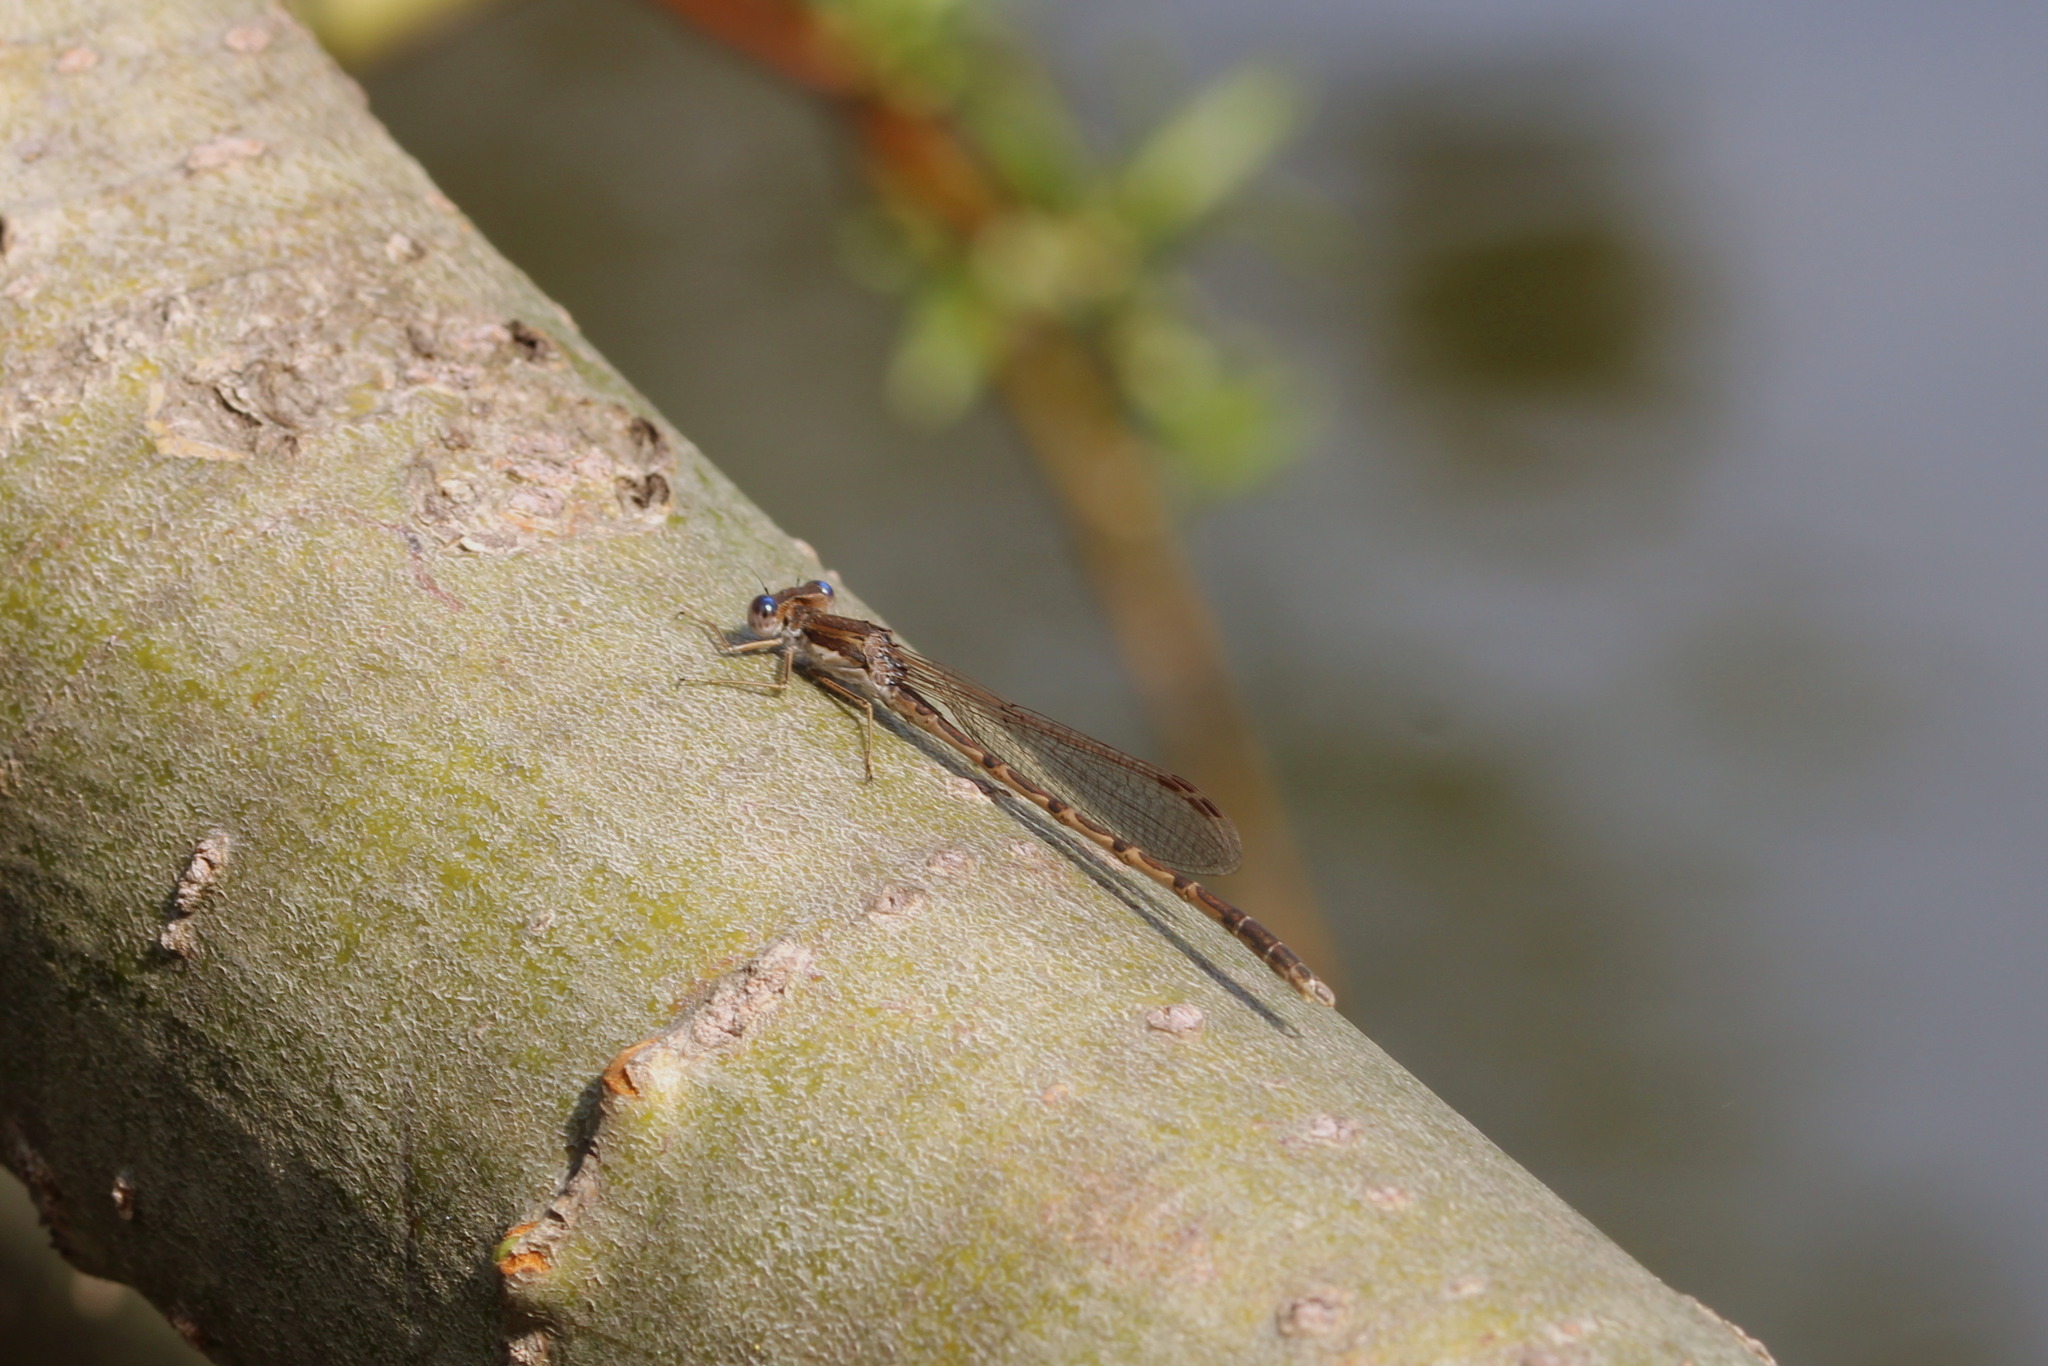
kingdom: Animalia
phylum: Arthropoda
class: Insecta
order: Odonata
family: Lestidae
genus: Sympecma
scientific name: Sympecma fusca
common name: Common winter damsel
